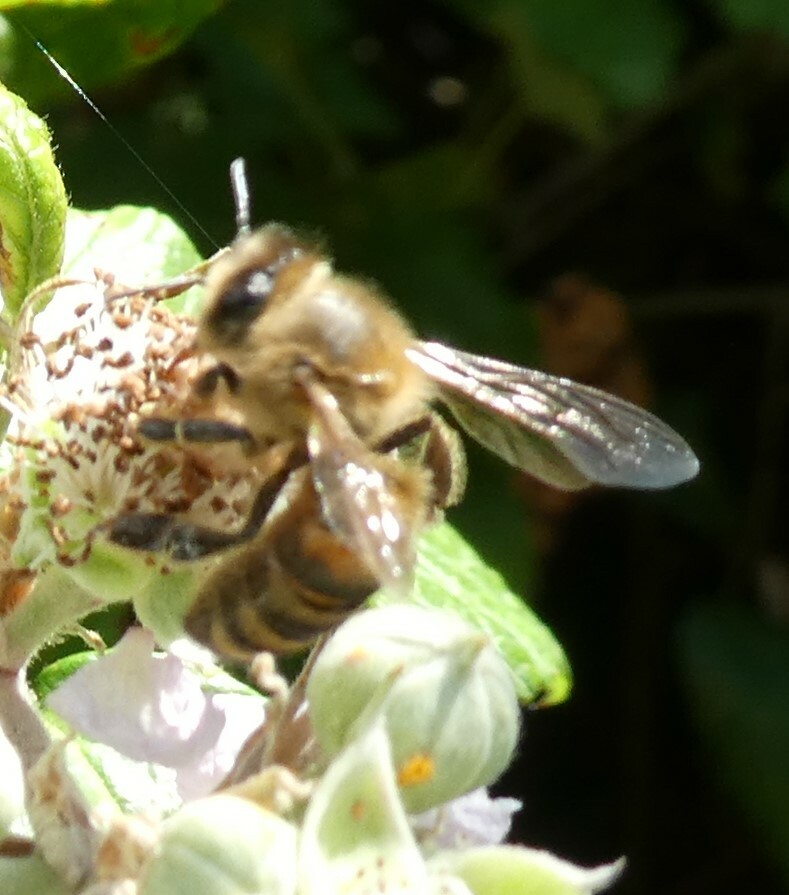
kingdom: Animalia
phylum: Arthropoda
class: Insecta
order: Hymenoptera
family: Apidae
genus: Apis
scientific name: Apis mellifera
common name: Honey bee
